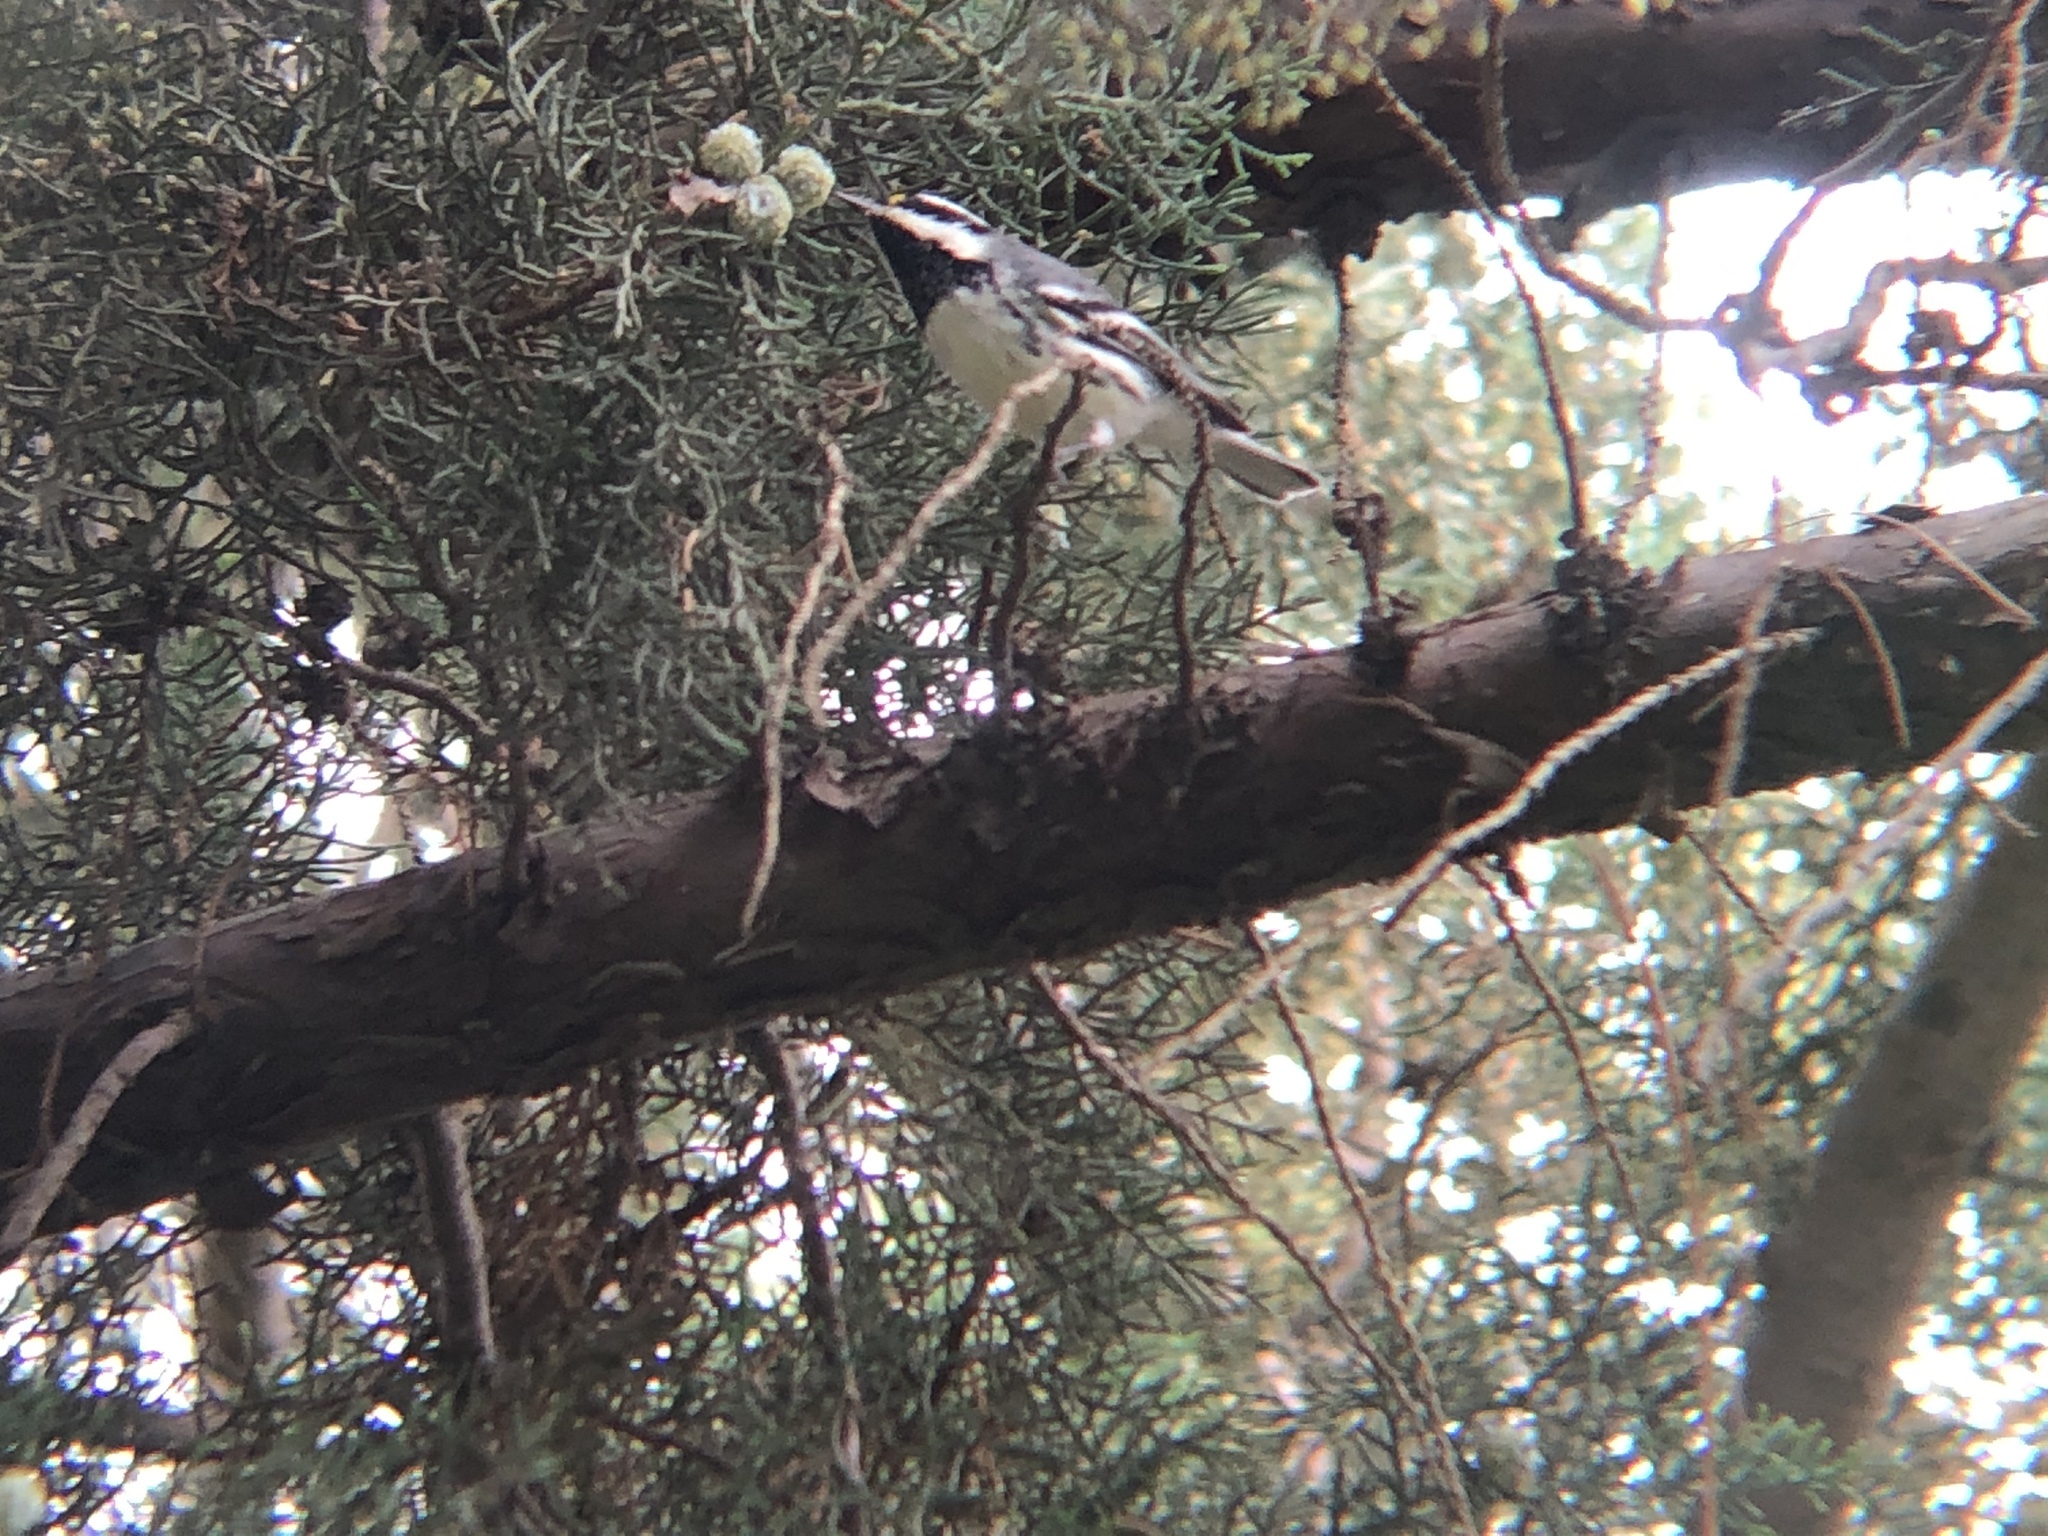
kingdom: Animalia
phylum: Chordata
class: Aves
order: Passeriformes
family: Parulidae
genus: Setophaga
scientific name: Setophaga nigrescens
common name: Black-throated gray warbler
